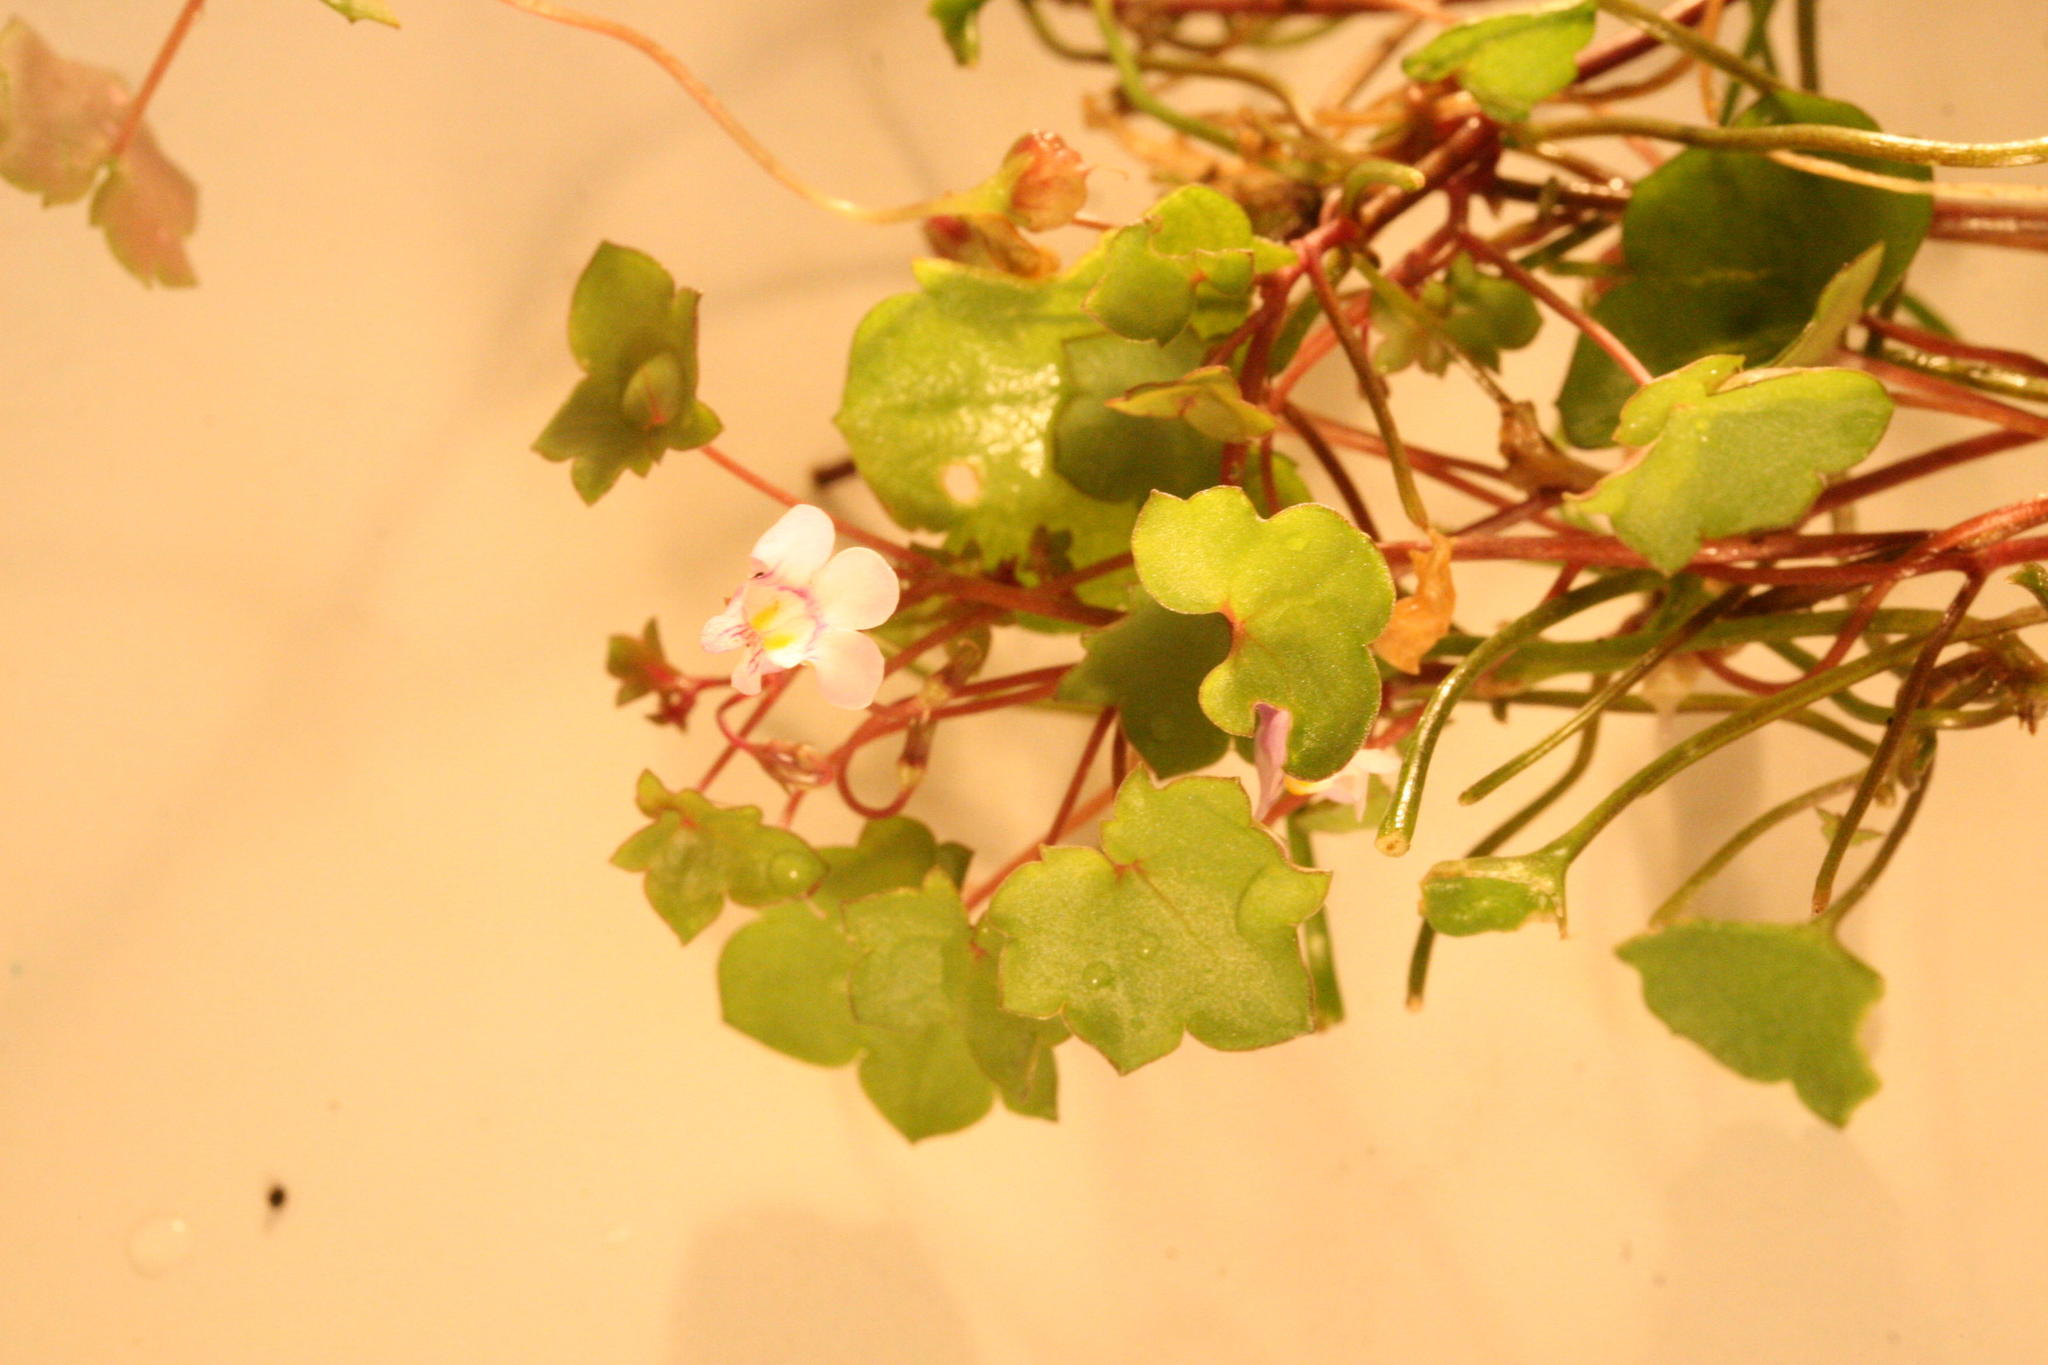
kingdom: Plantae
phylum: Tracheophyta
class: Magnoliopsida
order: Lamiales
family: Plantaginaceae
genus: Cymbalaria
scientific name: Cymbalaria muralis
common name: Ivy-leaved toadflax
